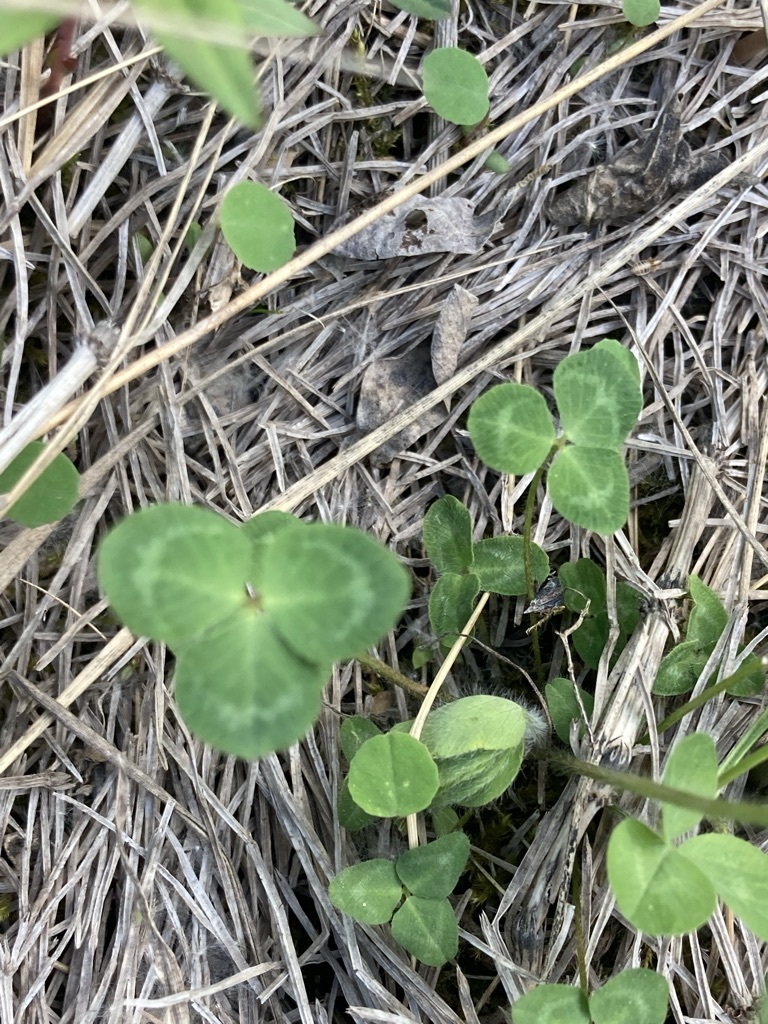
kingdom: Plantae
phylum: Tracheophyta
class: Magnoliopsida
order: Fabales
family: Fabaceae
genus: Trifolium
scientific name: Trifolium pratense
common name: Red clover
